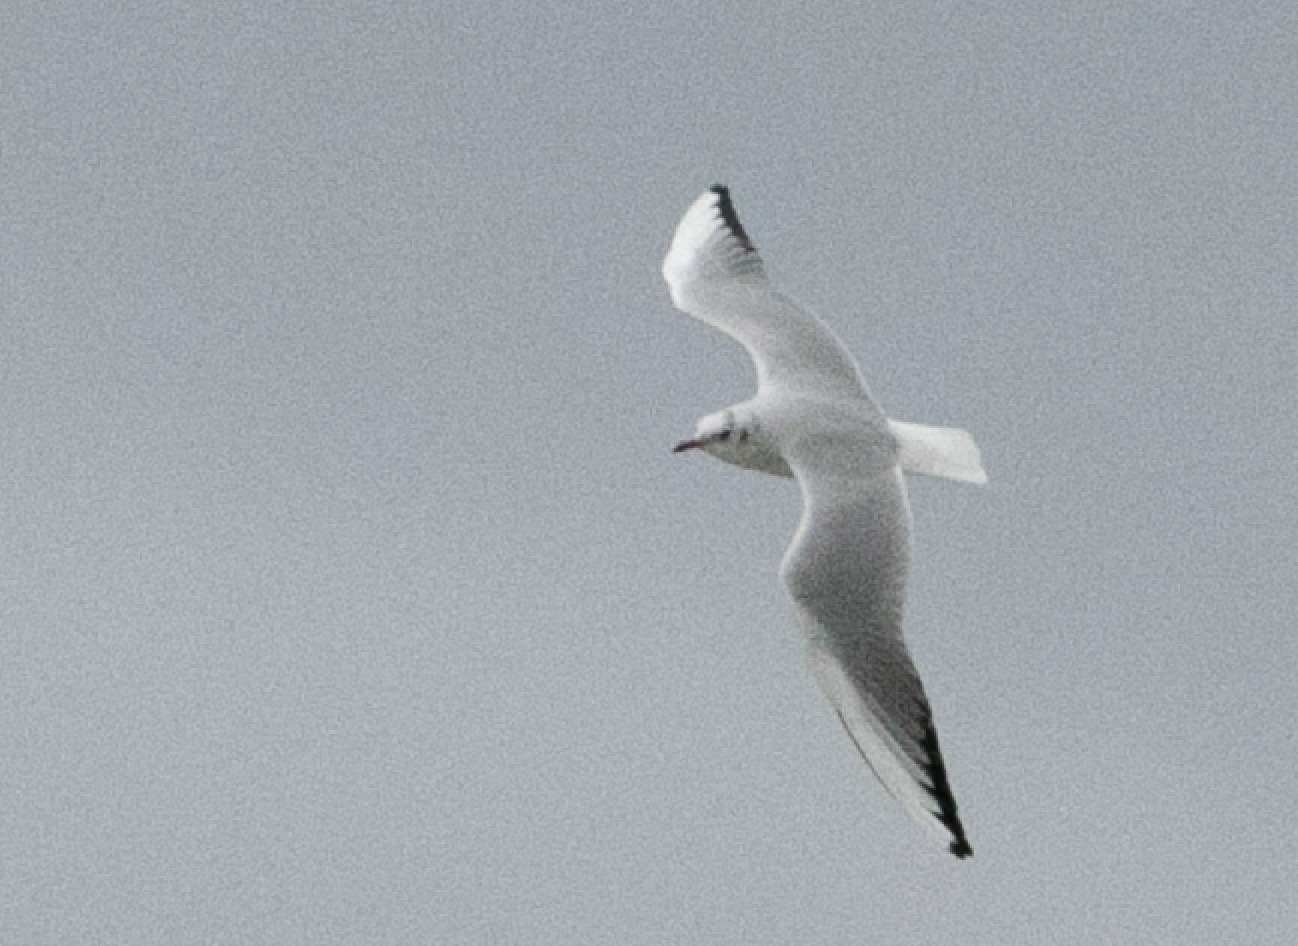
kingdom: Animalia
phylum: Chordata
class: Aves
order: Charadriiformes
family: Laridae
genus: Chroicocephalus
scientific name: Chroicocephalus ridibundus
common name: Black-headed gull
